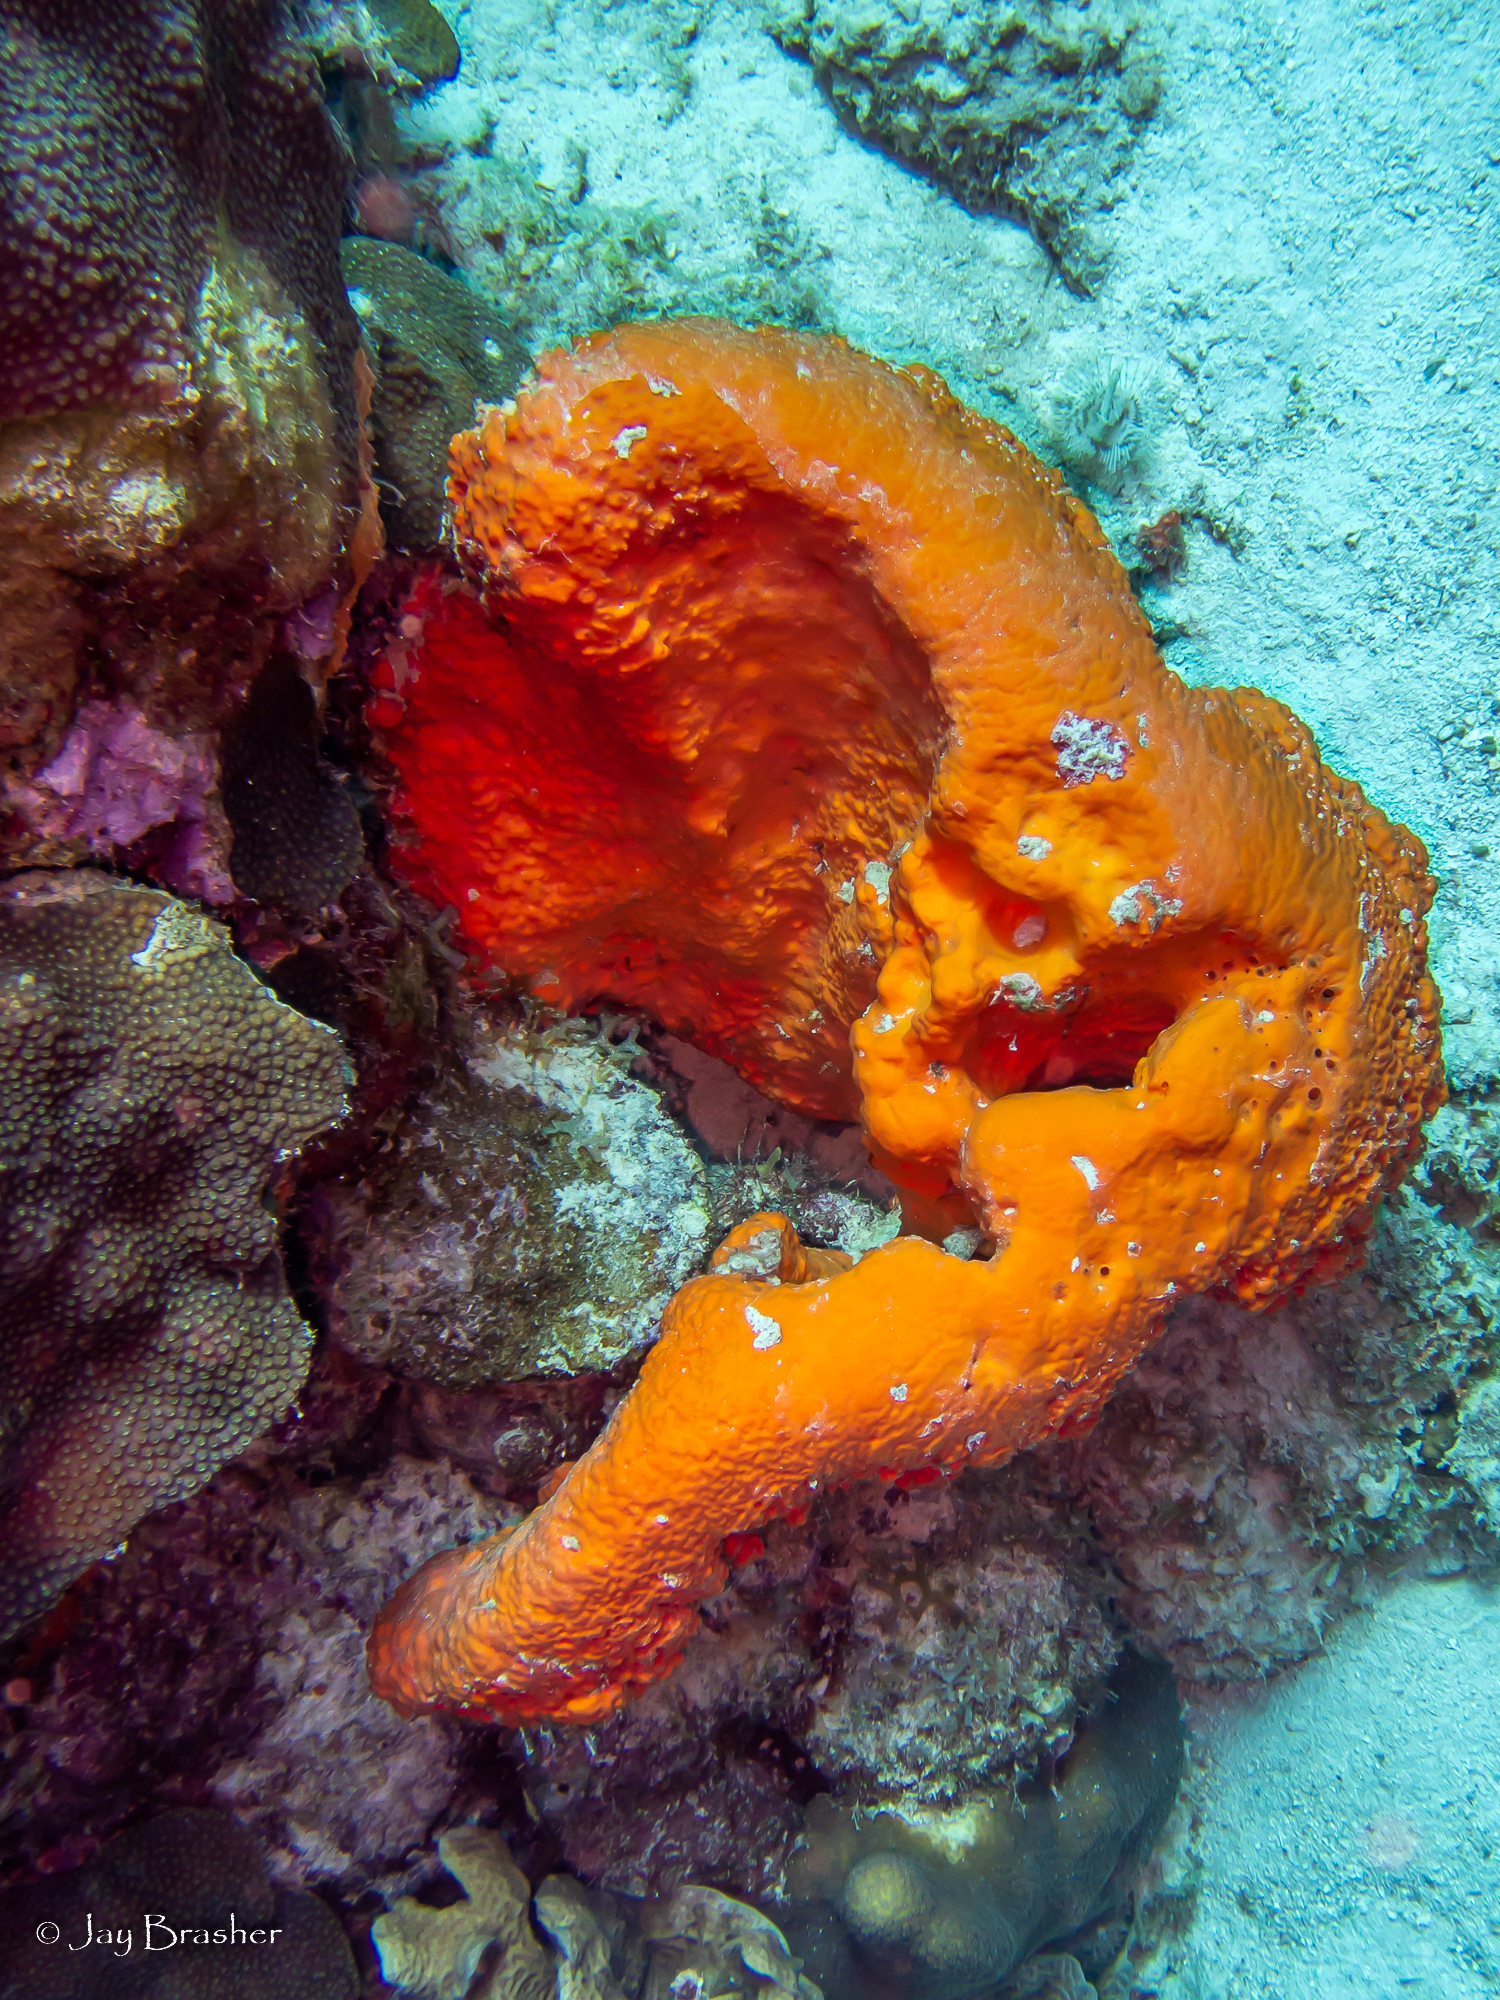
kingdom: Animalia
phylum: Porifera
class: Demospongiae
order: Agelasida
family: Agelasidae
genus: Agelas
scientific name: Agelas clathrodes
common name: Orange elephant ear sponge
